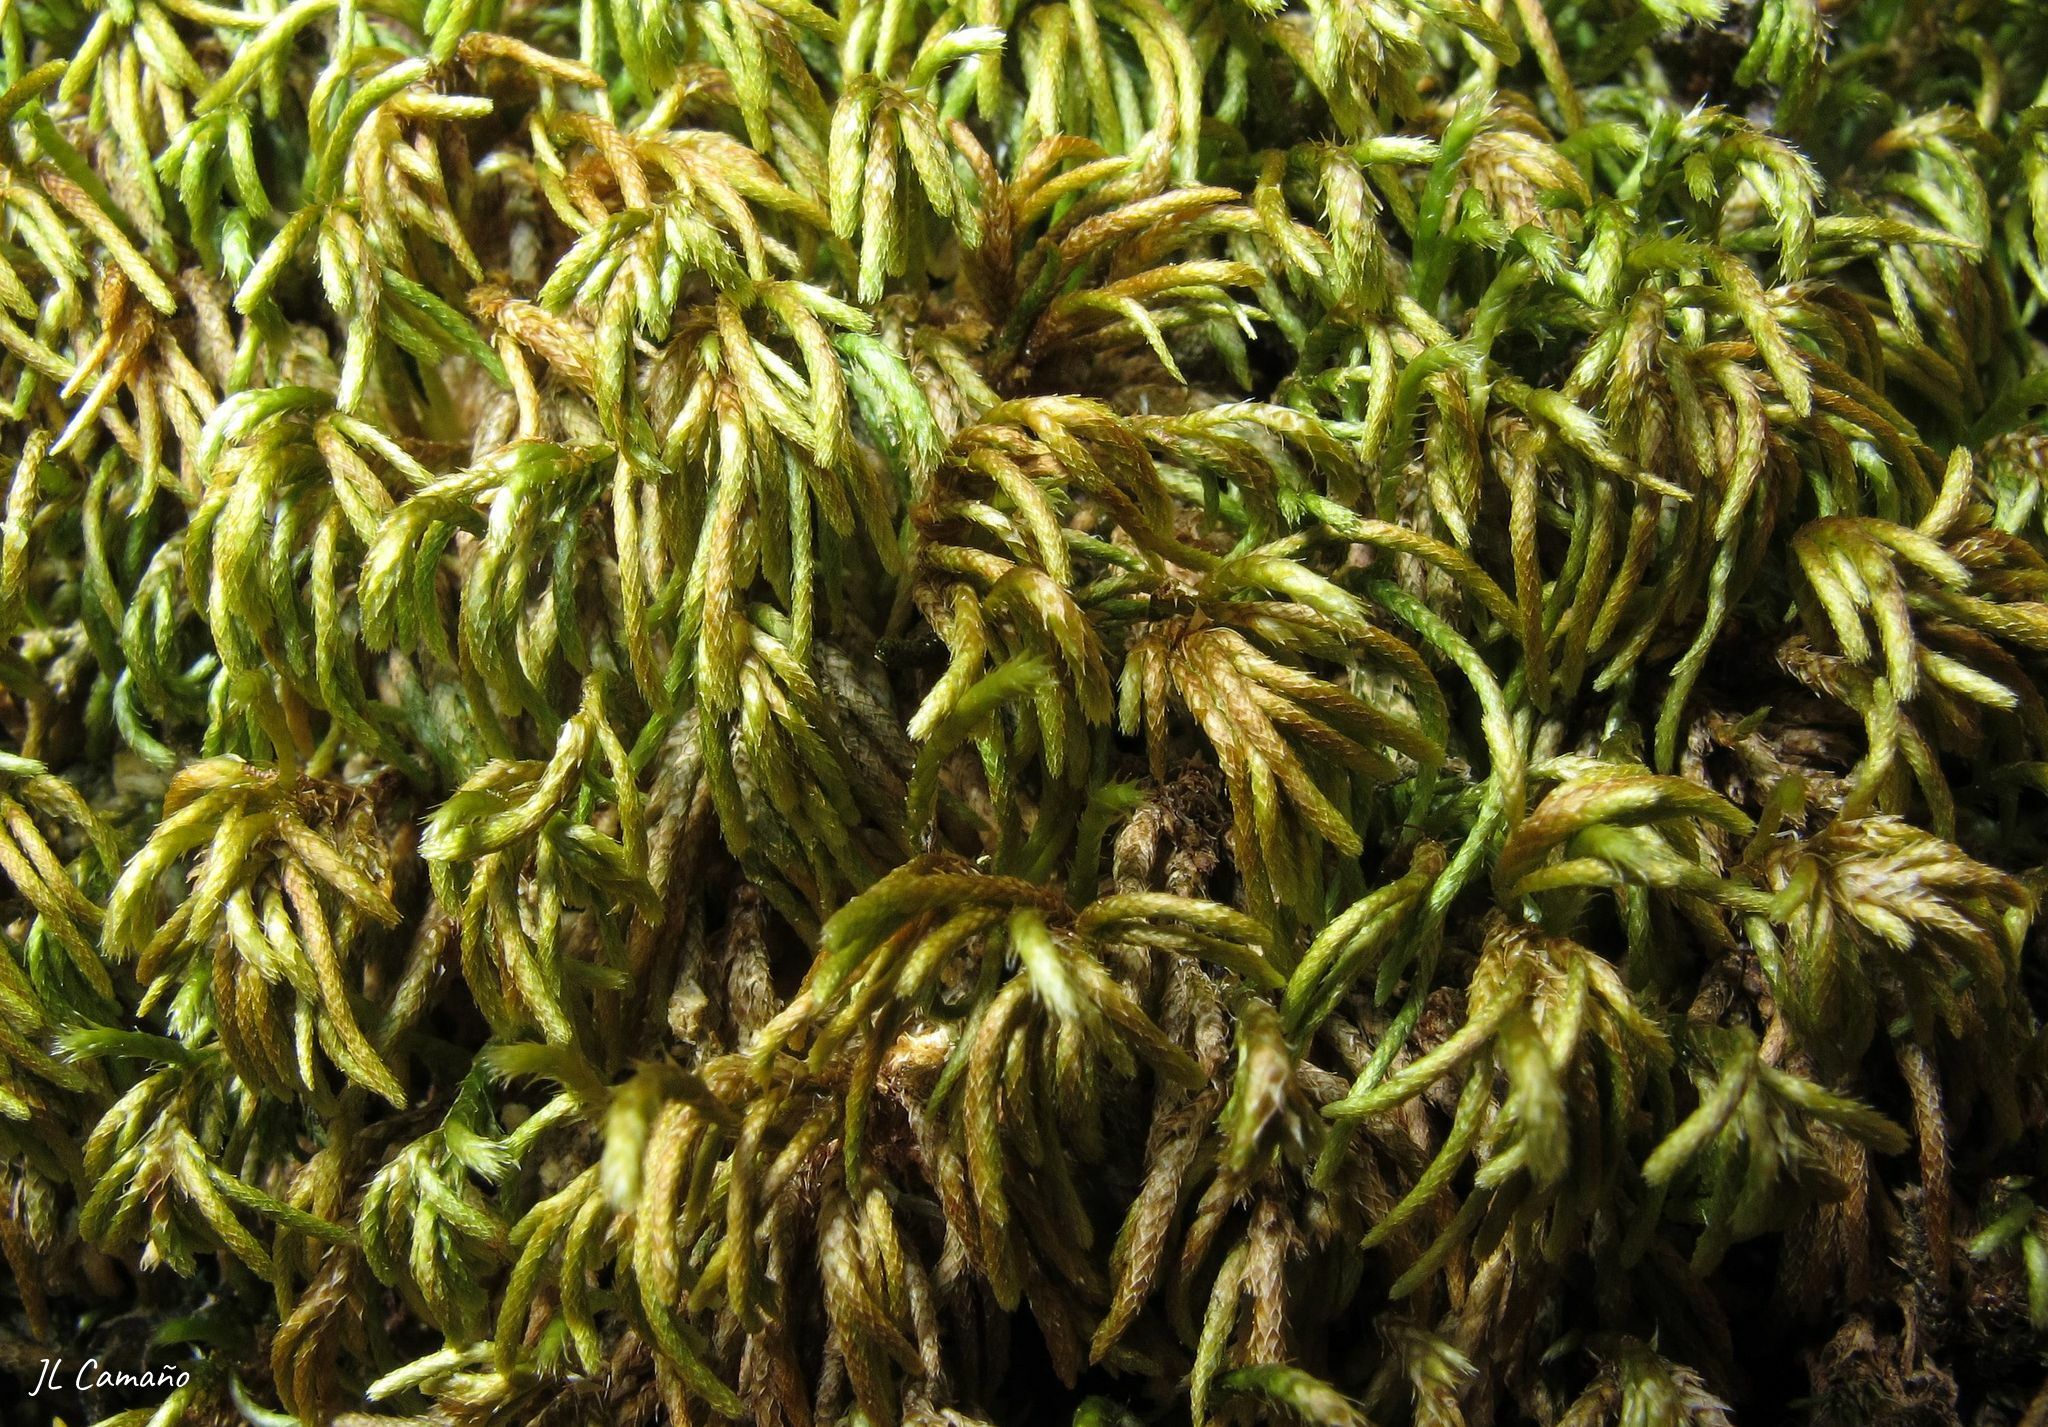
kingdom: Plantae
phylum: Bryophyta
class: Bryopsida
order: Hypnales
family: Lembophyllaceae
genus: Nogopterium
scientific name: Nogopterium gracile
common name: Bird's-foot wing-moss
